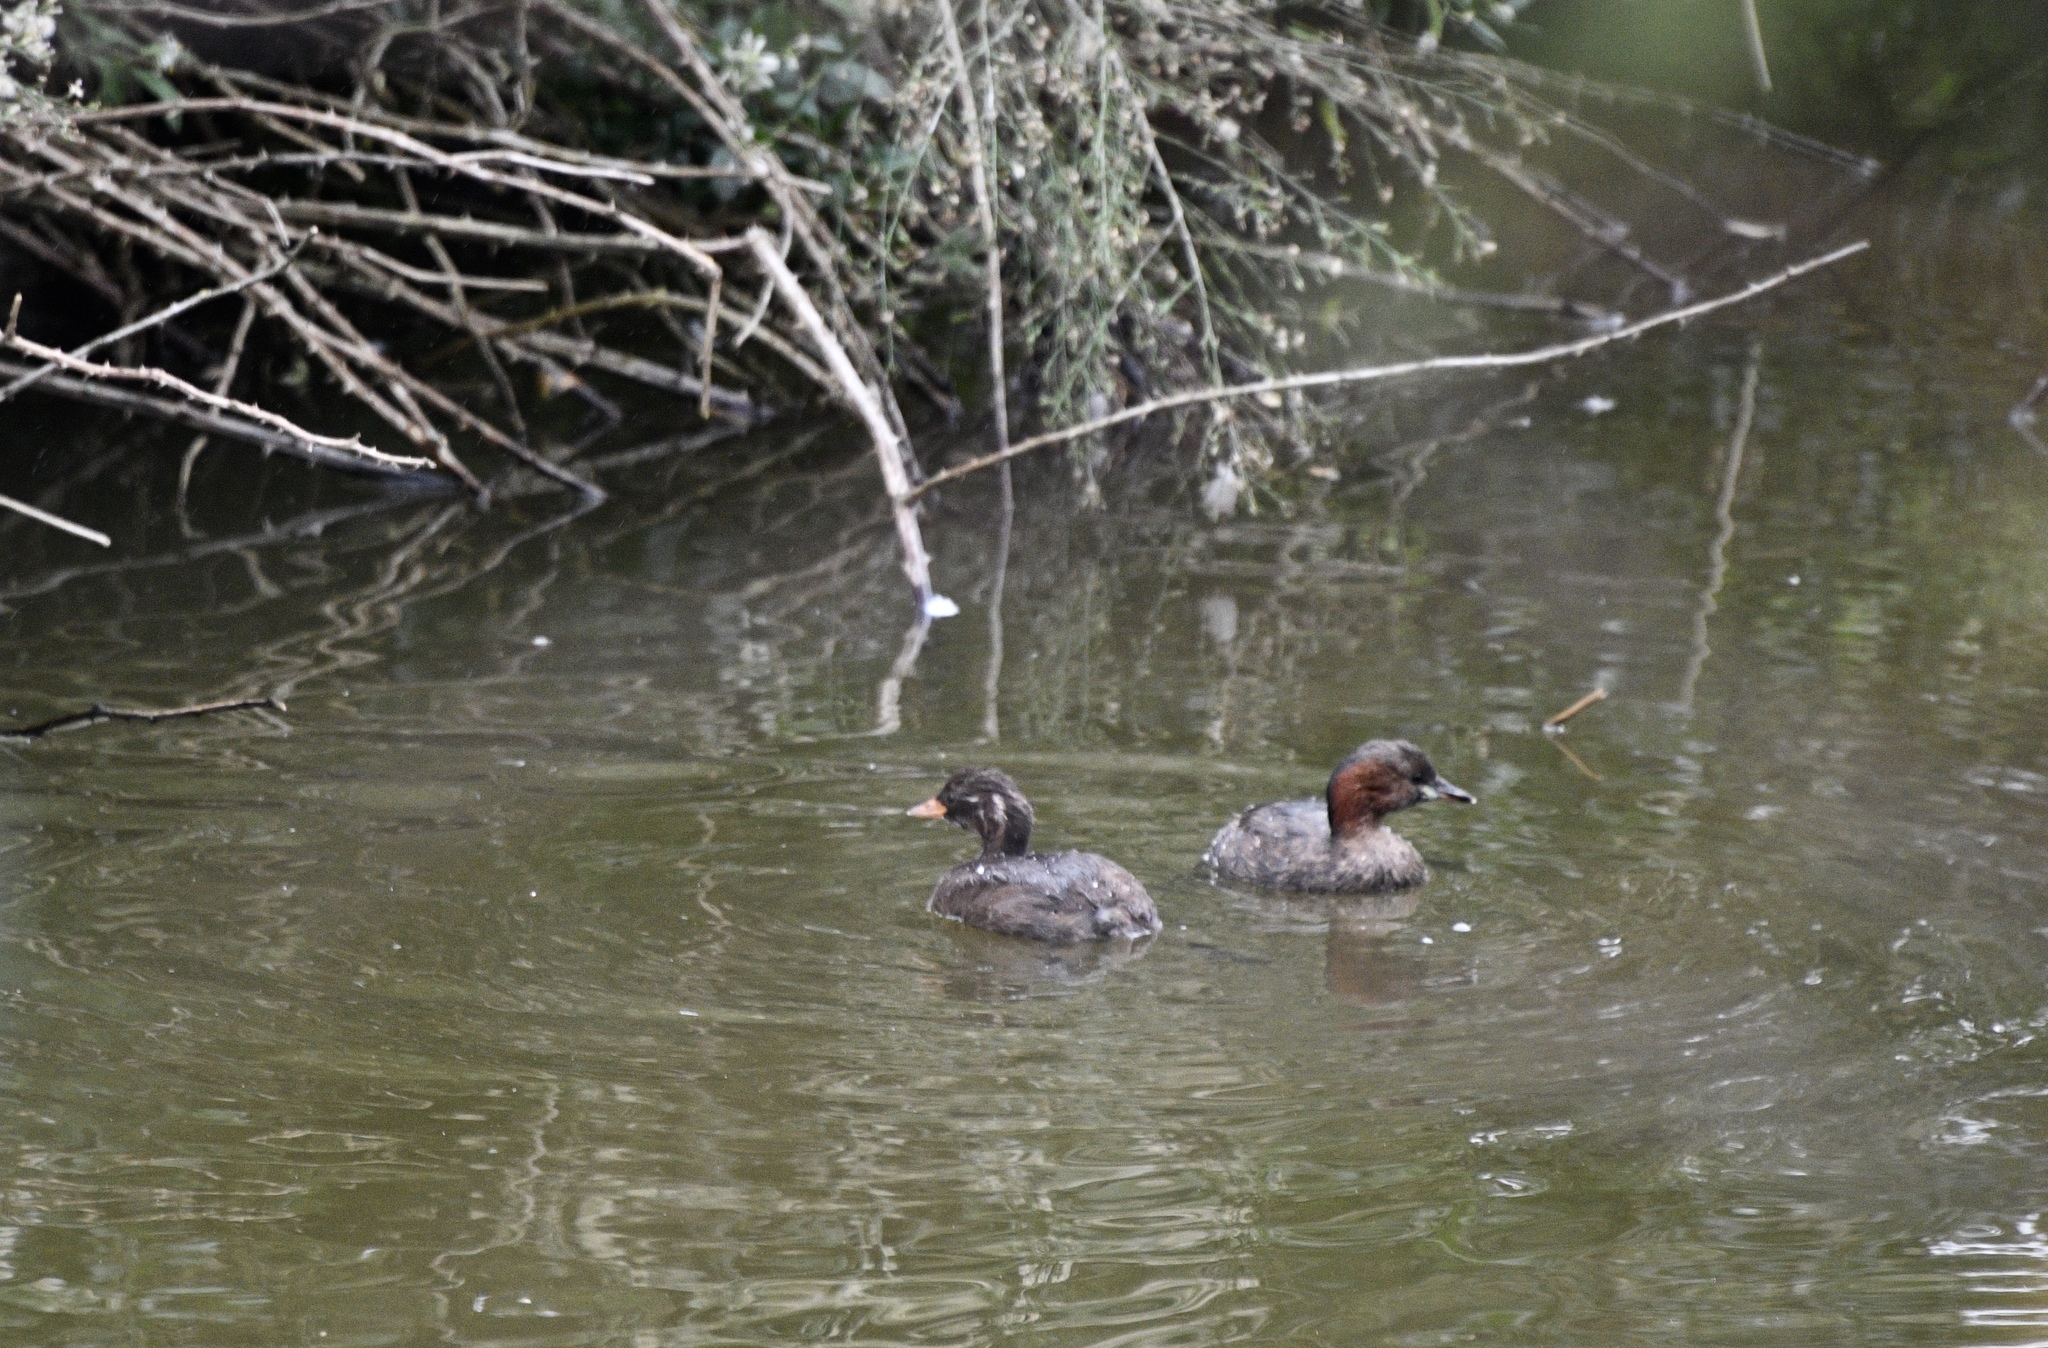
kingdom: Animalia
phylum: Chordata
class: Aves
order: Podicipediformes
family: Podicipedidae
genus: Tachybaptus
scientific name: Tachybaptus ruficollis
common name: Little grebe
